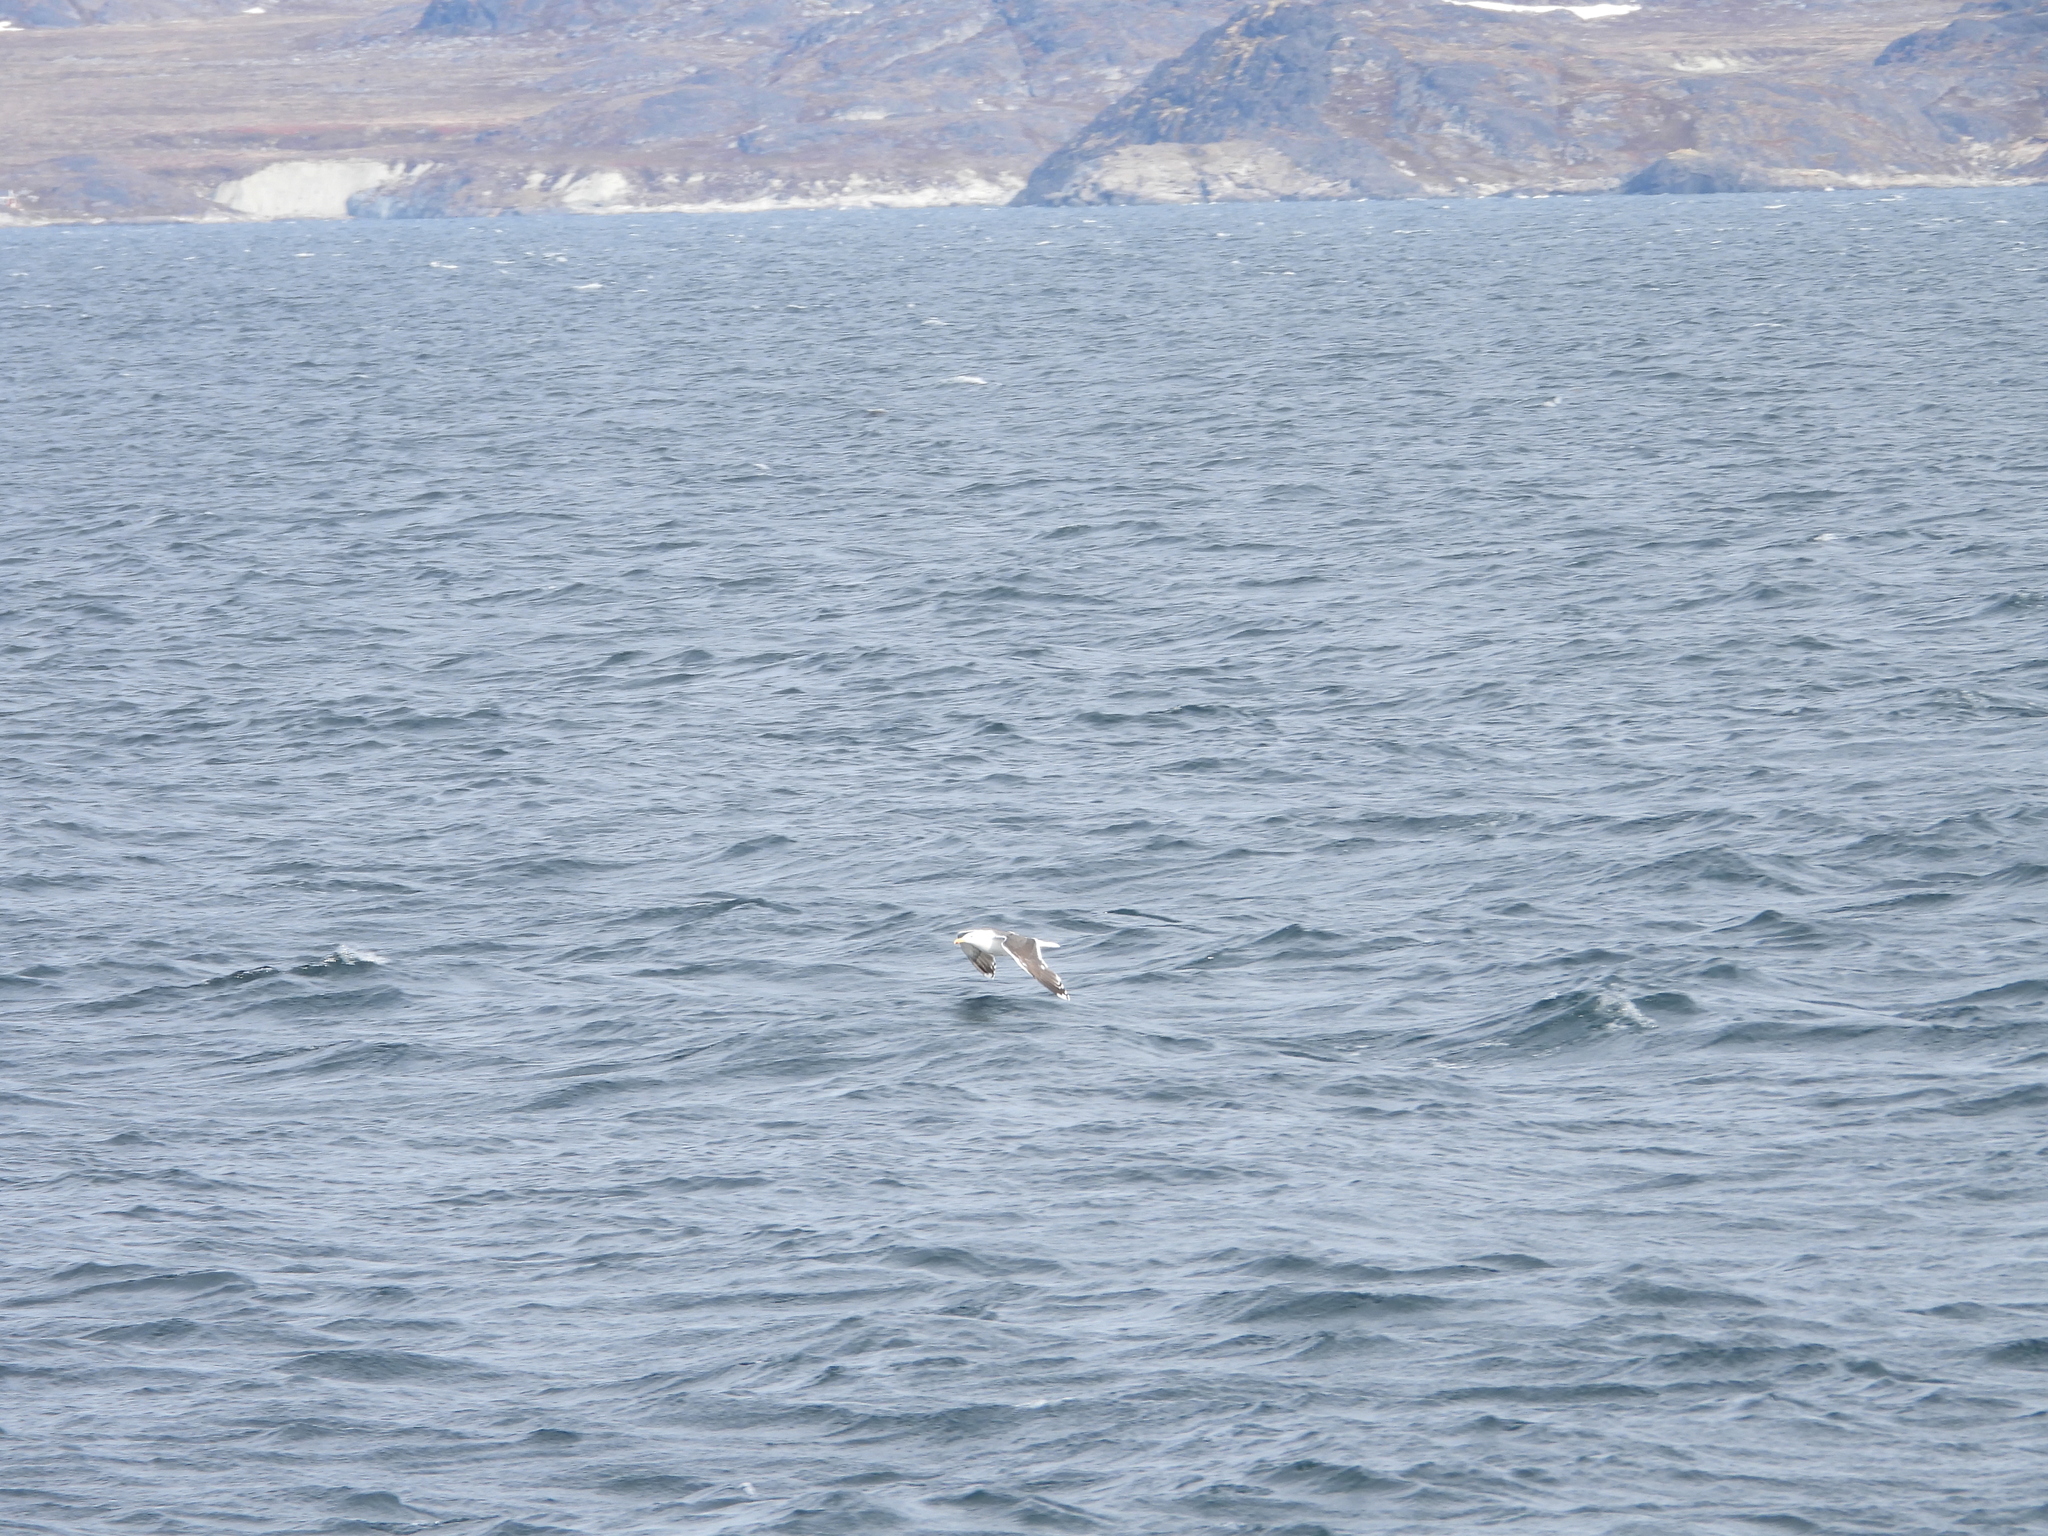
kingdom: Animalia
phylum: Chordata
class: Aves
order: Charadriiformes
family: Laridae
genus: Larus
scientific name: Larus marinus
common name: Great black-backed gull
